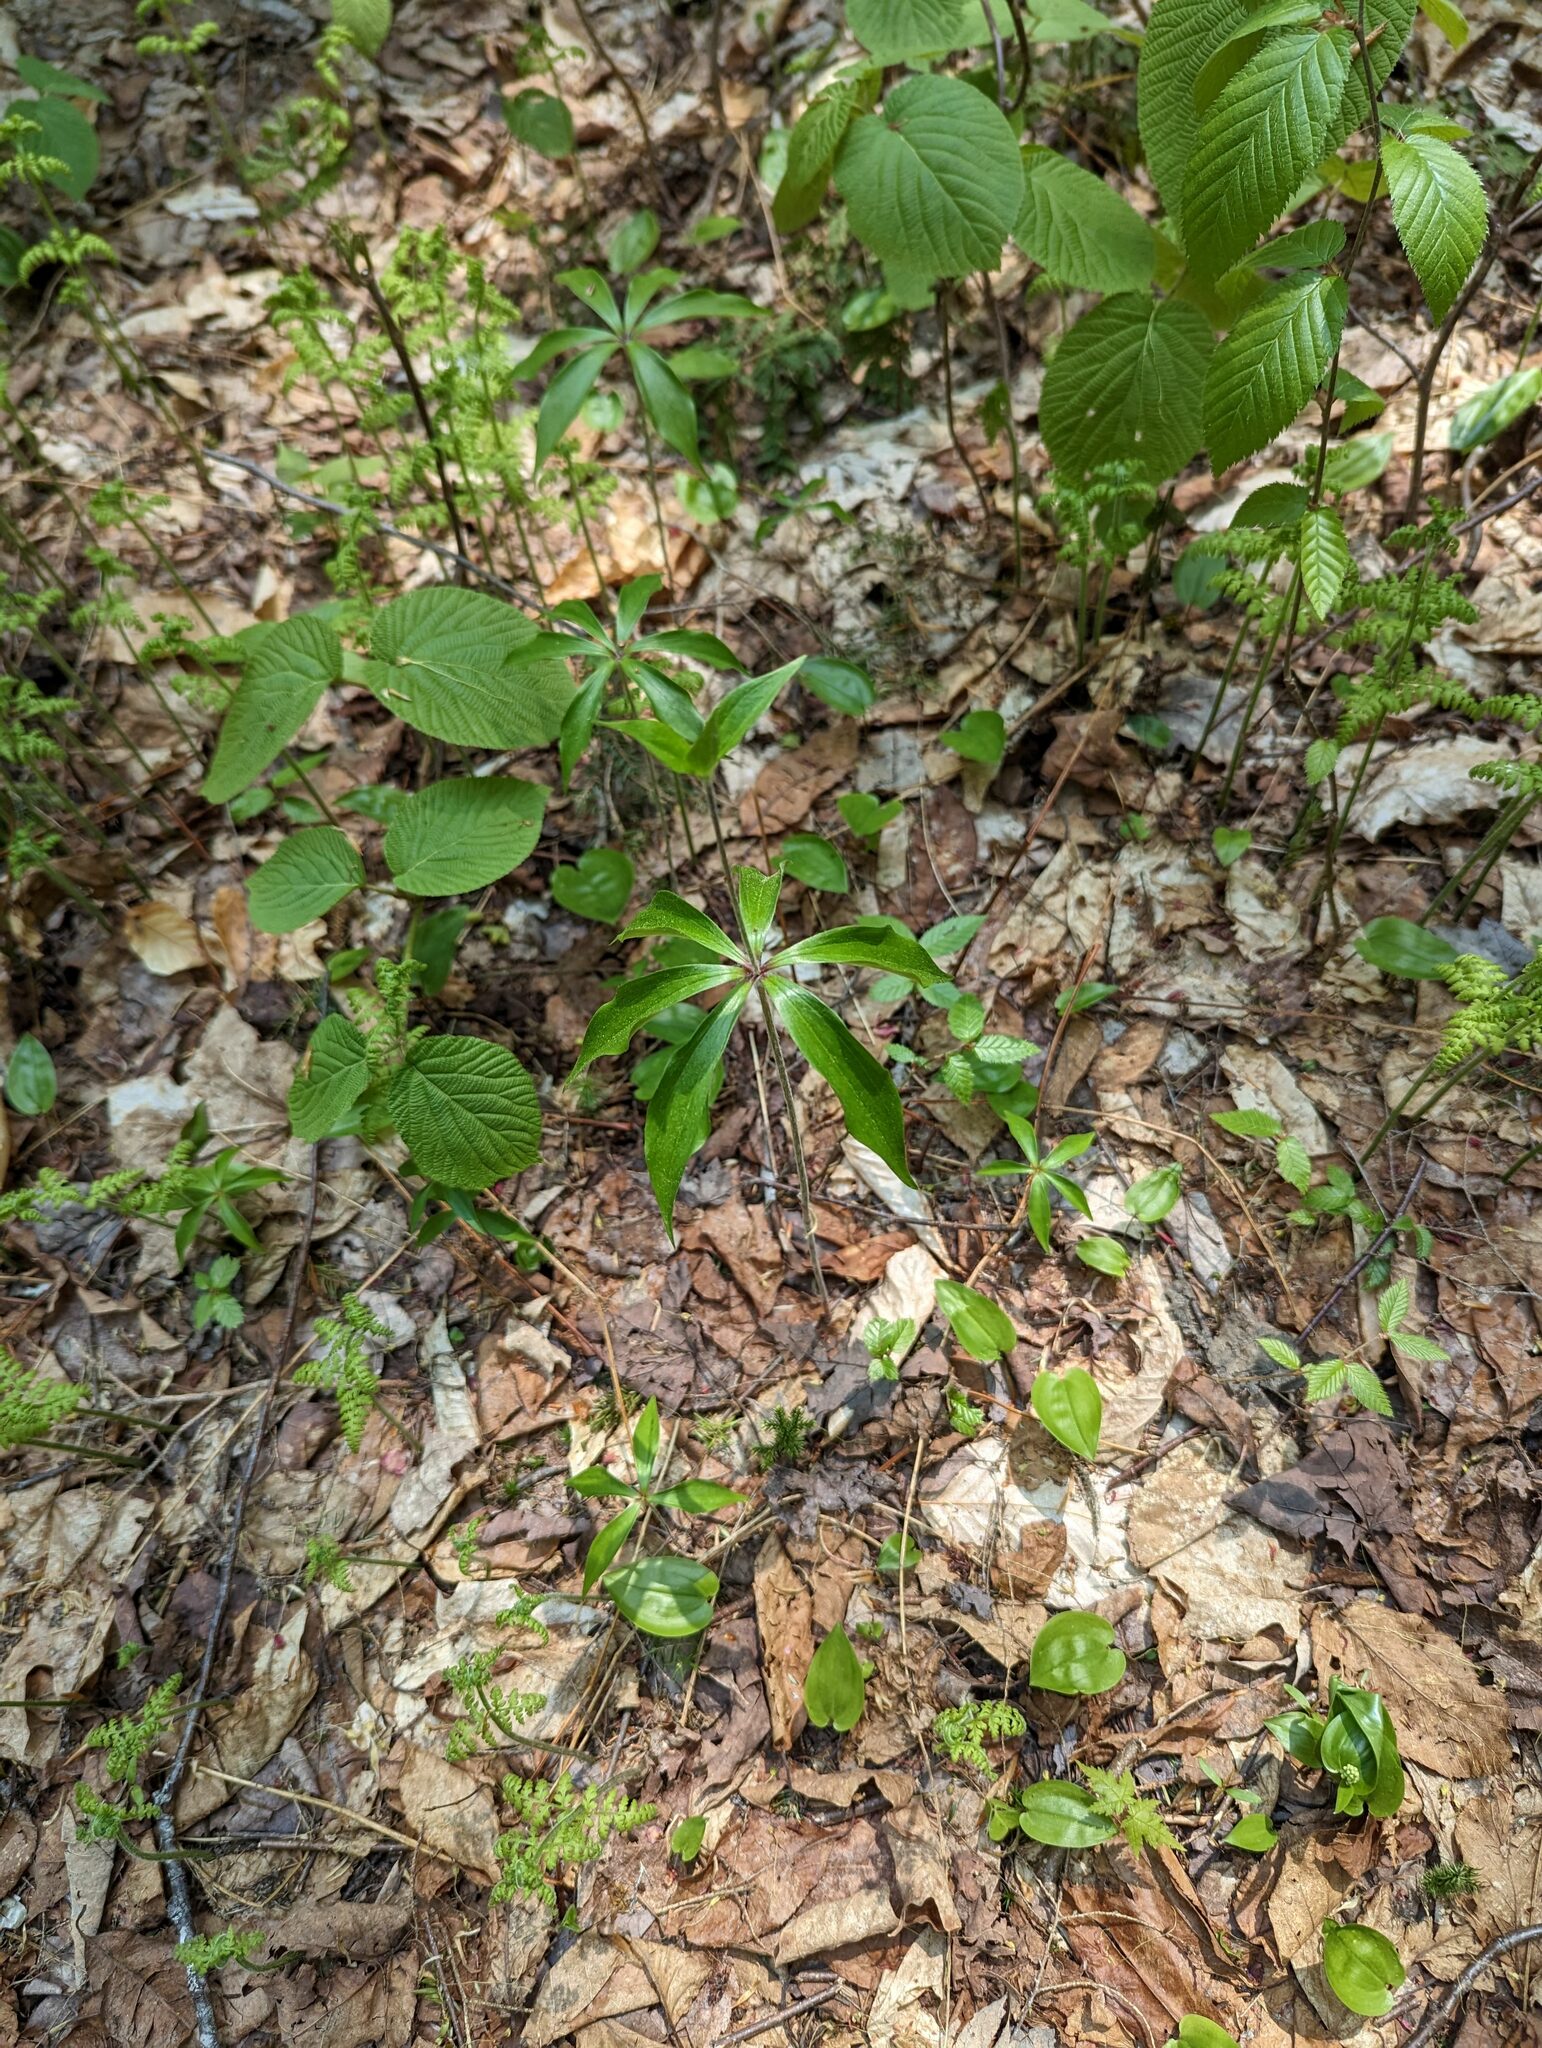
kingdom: Plantae
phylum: Tracheophyta
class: Liliopsida
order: Liliales
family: Liliaceae
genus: Medeola
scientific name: Medeola virginiana
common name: Indian cucumber-root
